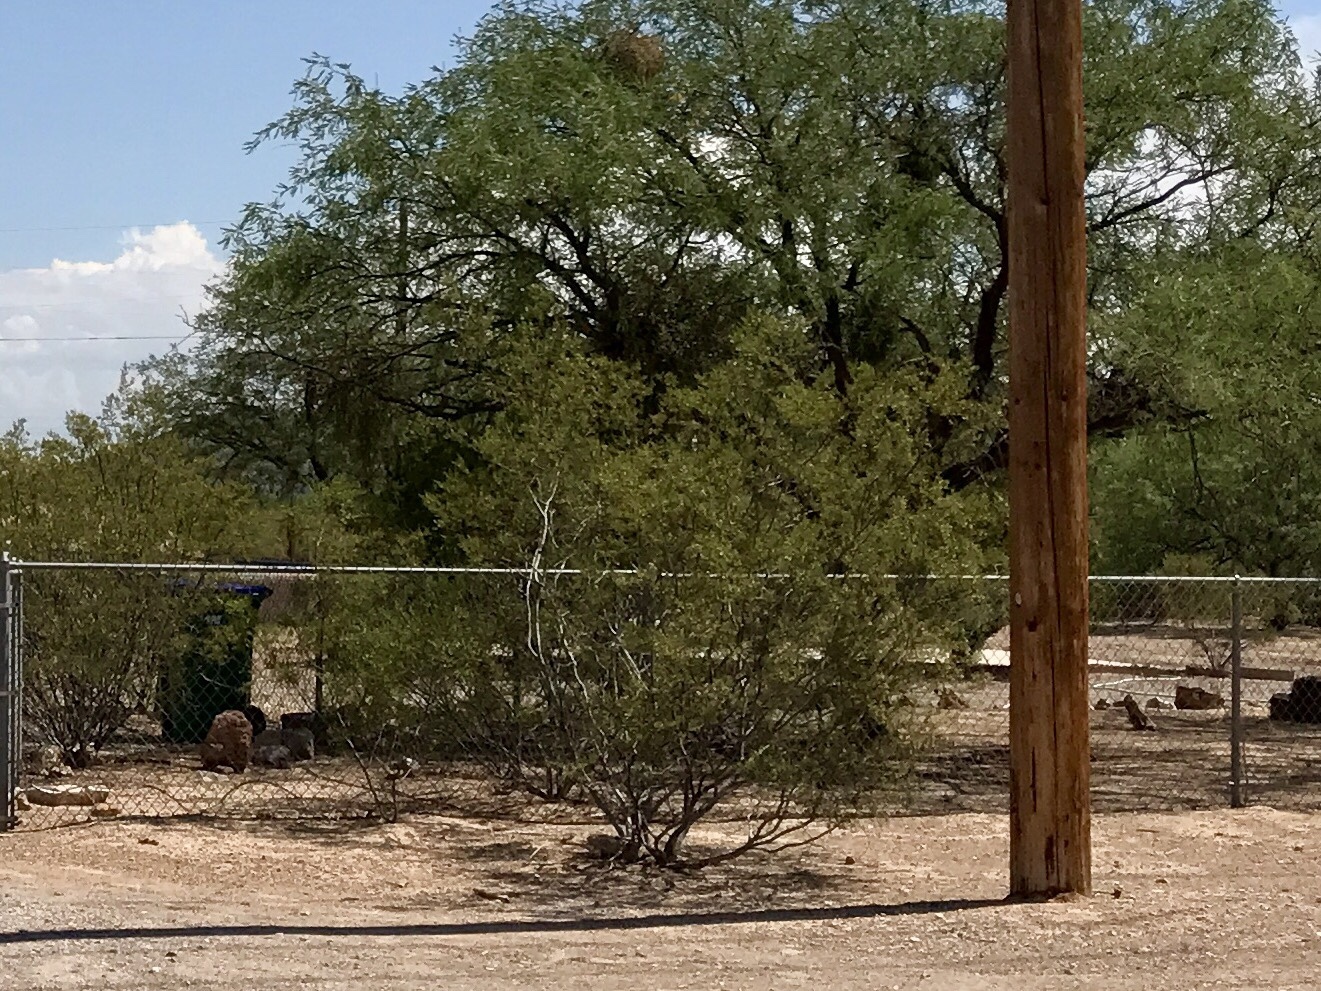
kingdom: Plantae
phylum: Tracheophyta
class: Magnoliopsida
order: Zygophyllales
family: Zygophyllaceae
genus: Larrea
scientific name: Larrea tridentata
